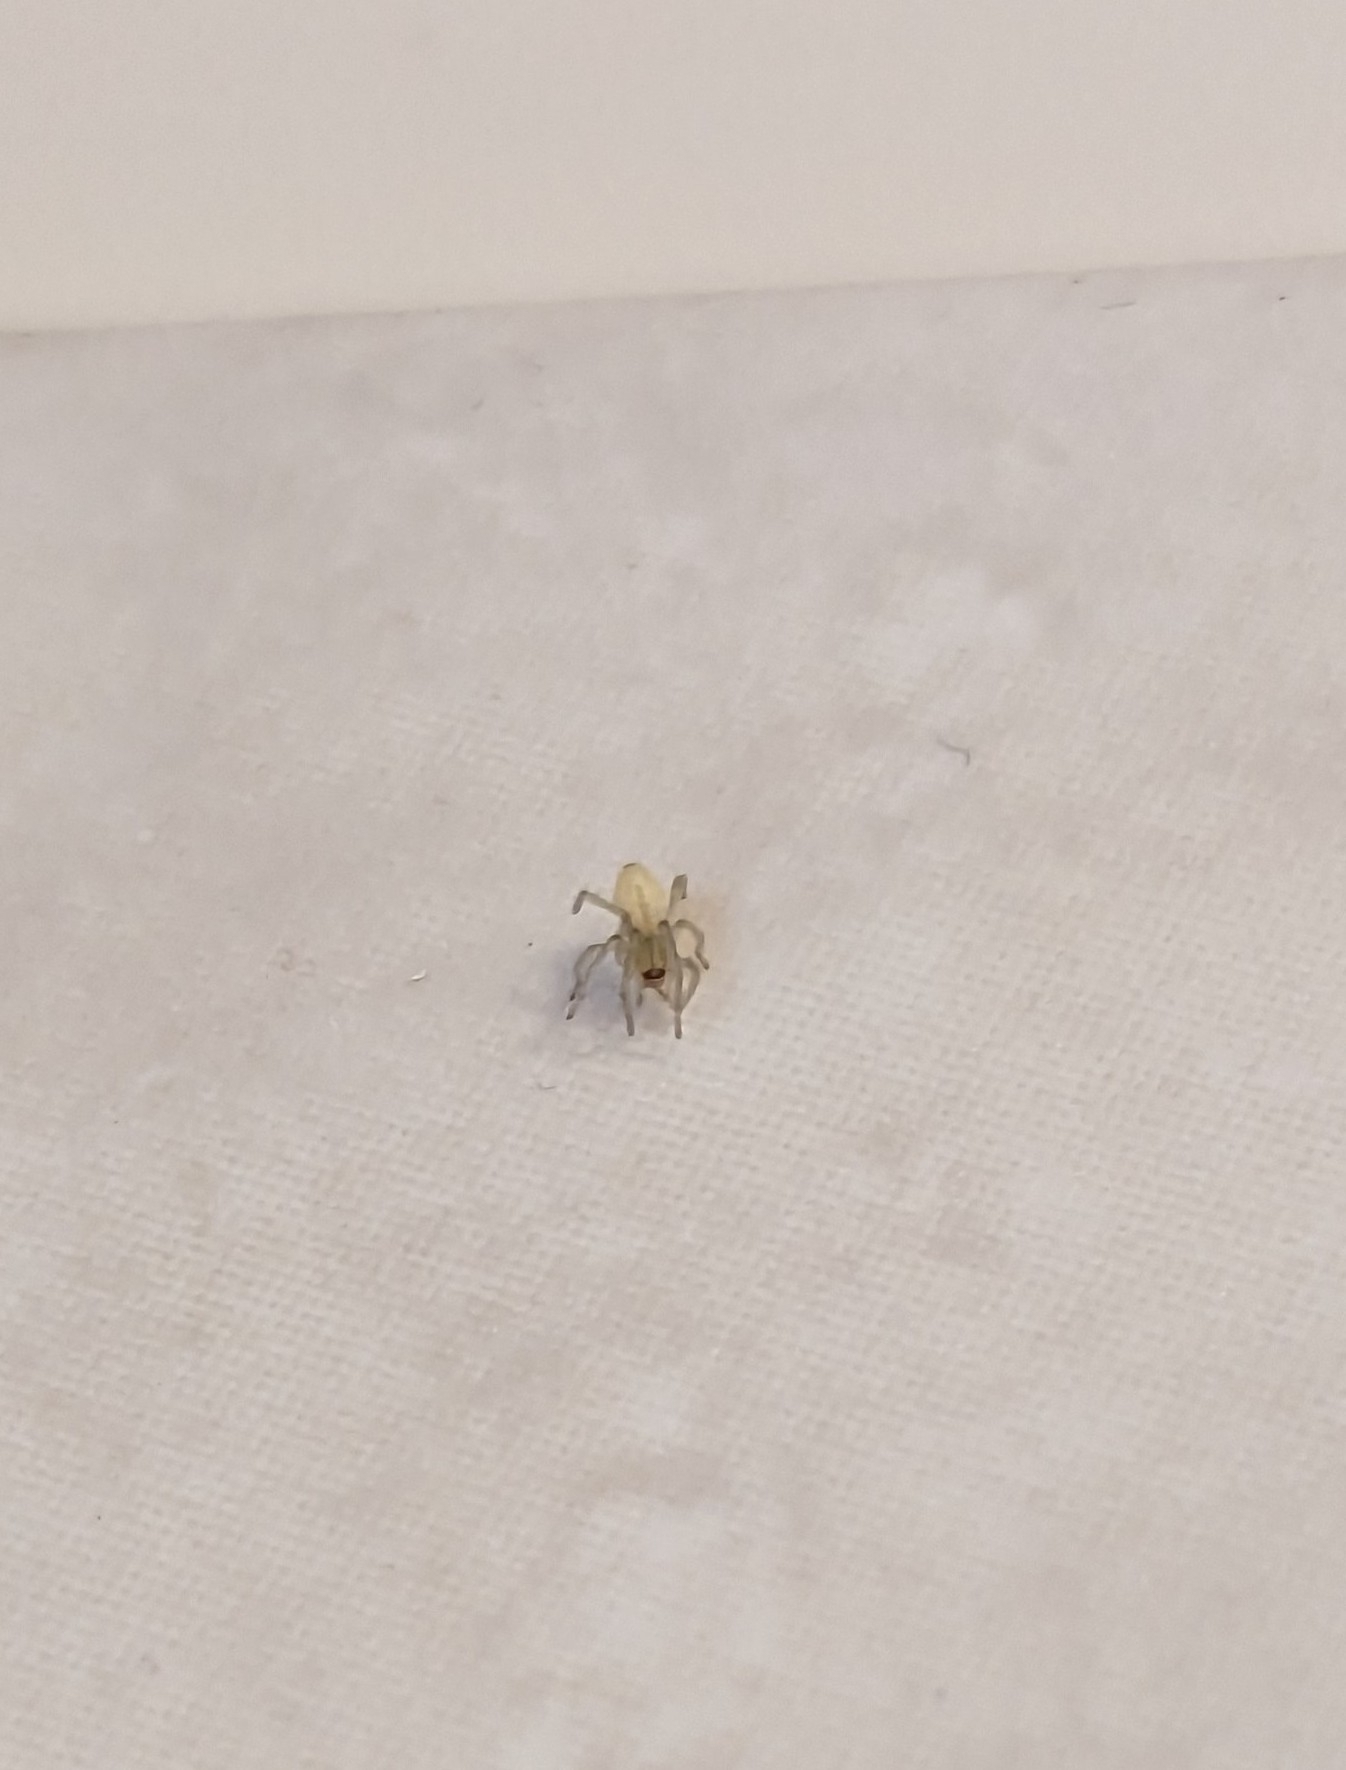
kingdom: Animalia
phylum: Arthropoda
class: Arachnida
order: Araneae
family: Cheiracanthiidae
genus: Cheiracanthium
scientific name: Cheiracanthium mildei
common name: Northern yellow sac spider
